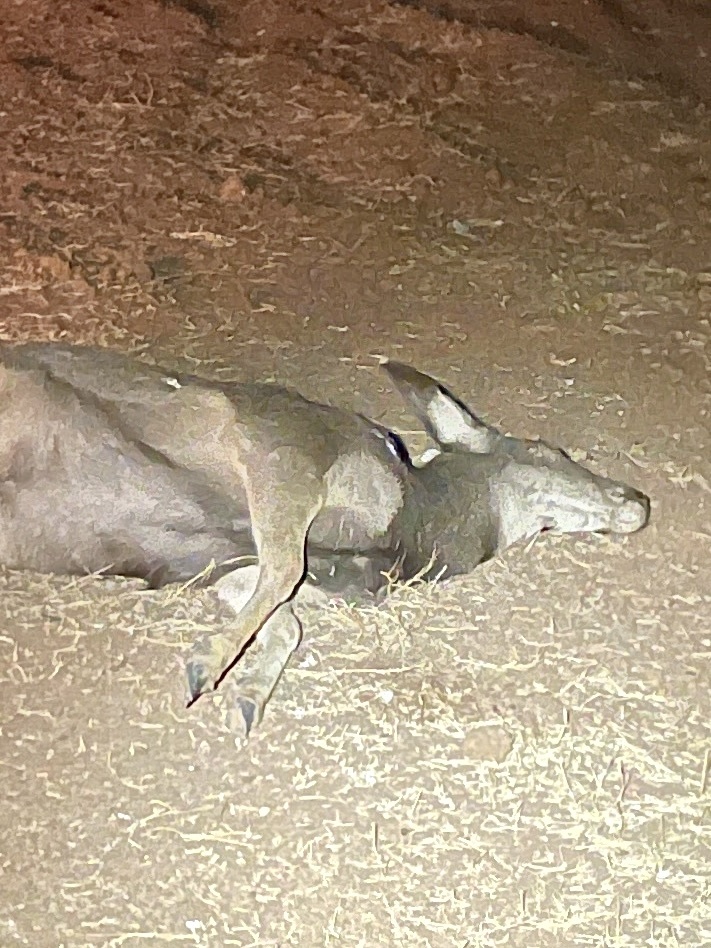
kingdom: Animalia
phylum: Chordata
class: Mammalia
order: Artiodactyla
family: Cervidae
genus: Odocoileus
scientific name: Odocoileus hemionus
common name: Mule deer
